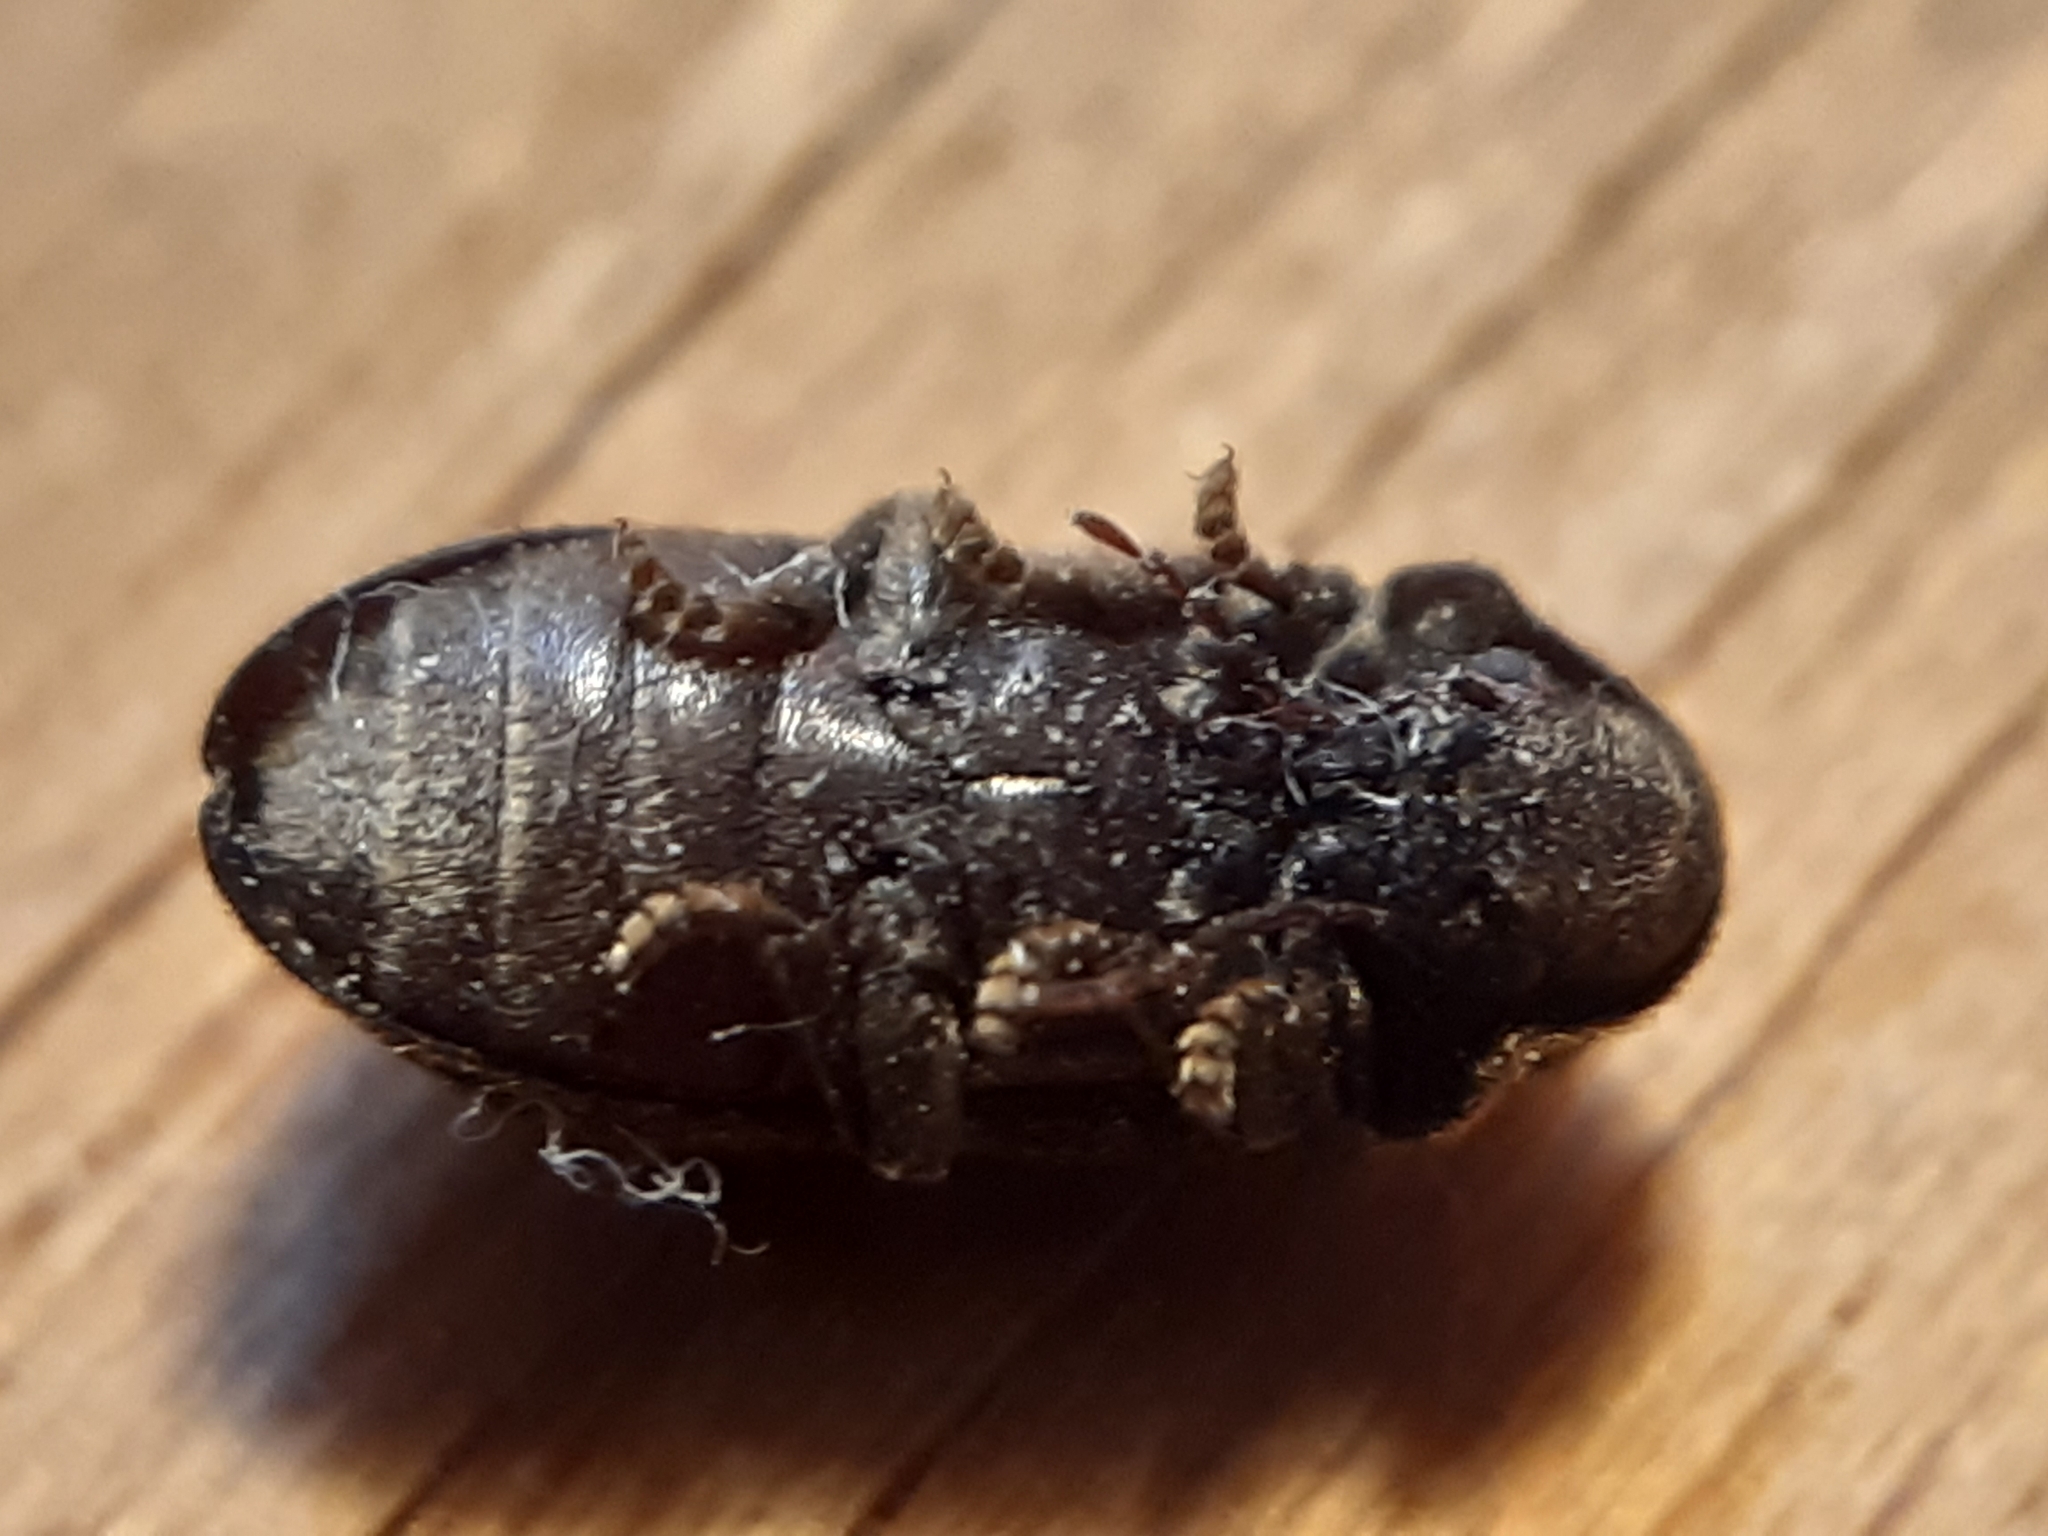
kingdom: Animalia
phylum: Arthropoda
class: Insecta
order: Coleoptera
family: Anobiidae
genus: Xestobium
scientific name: Xestobium rufovillosum
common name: Death-watch beetle
